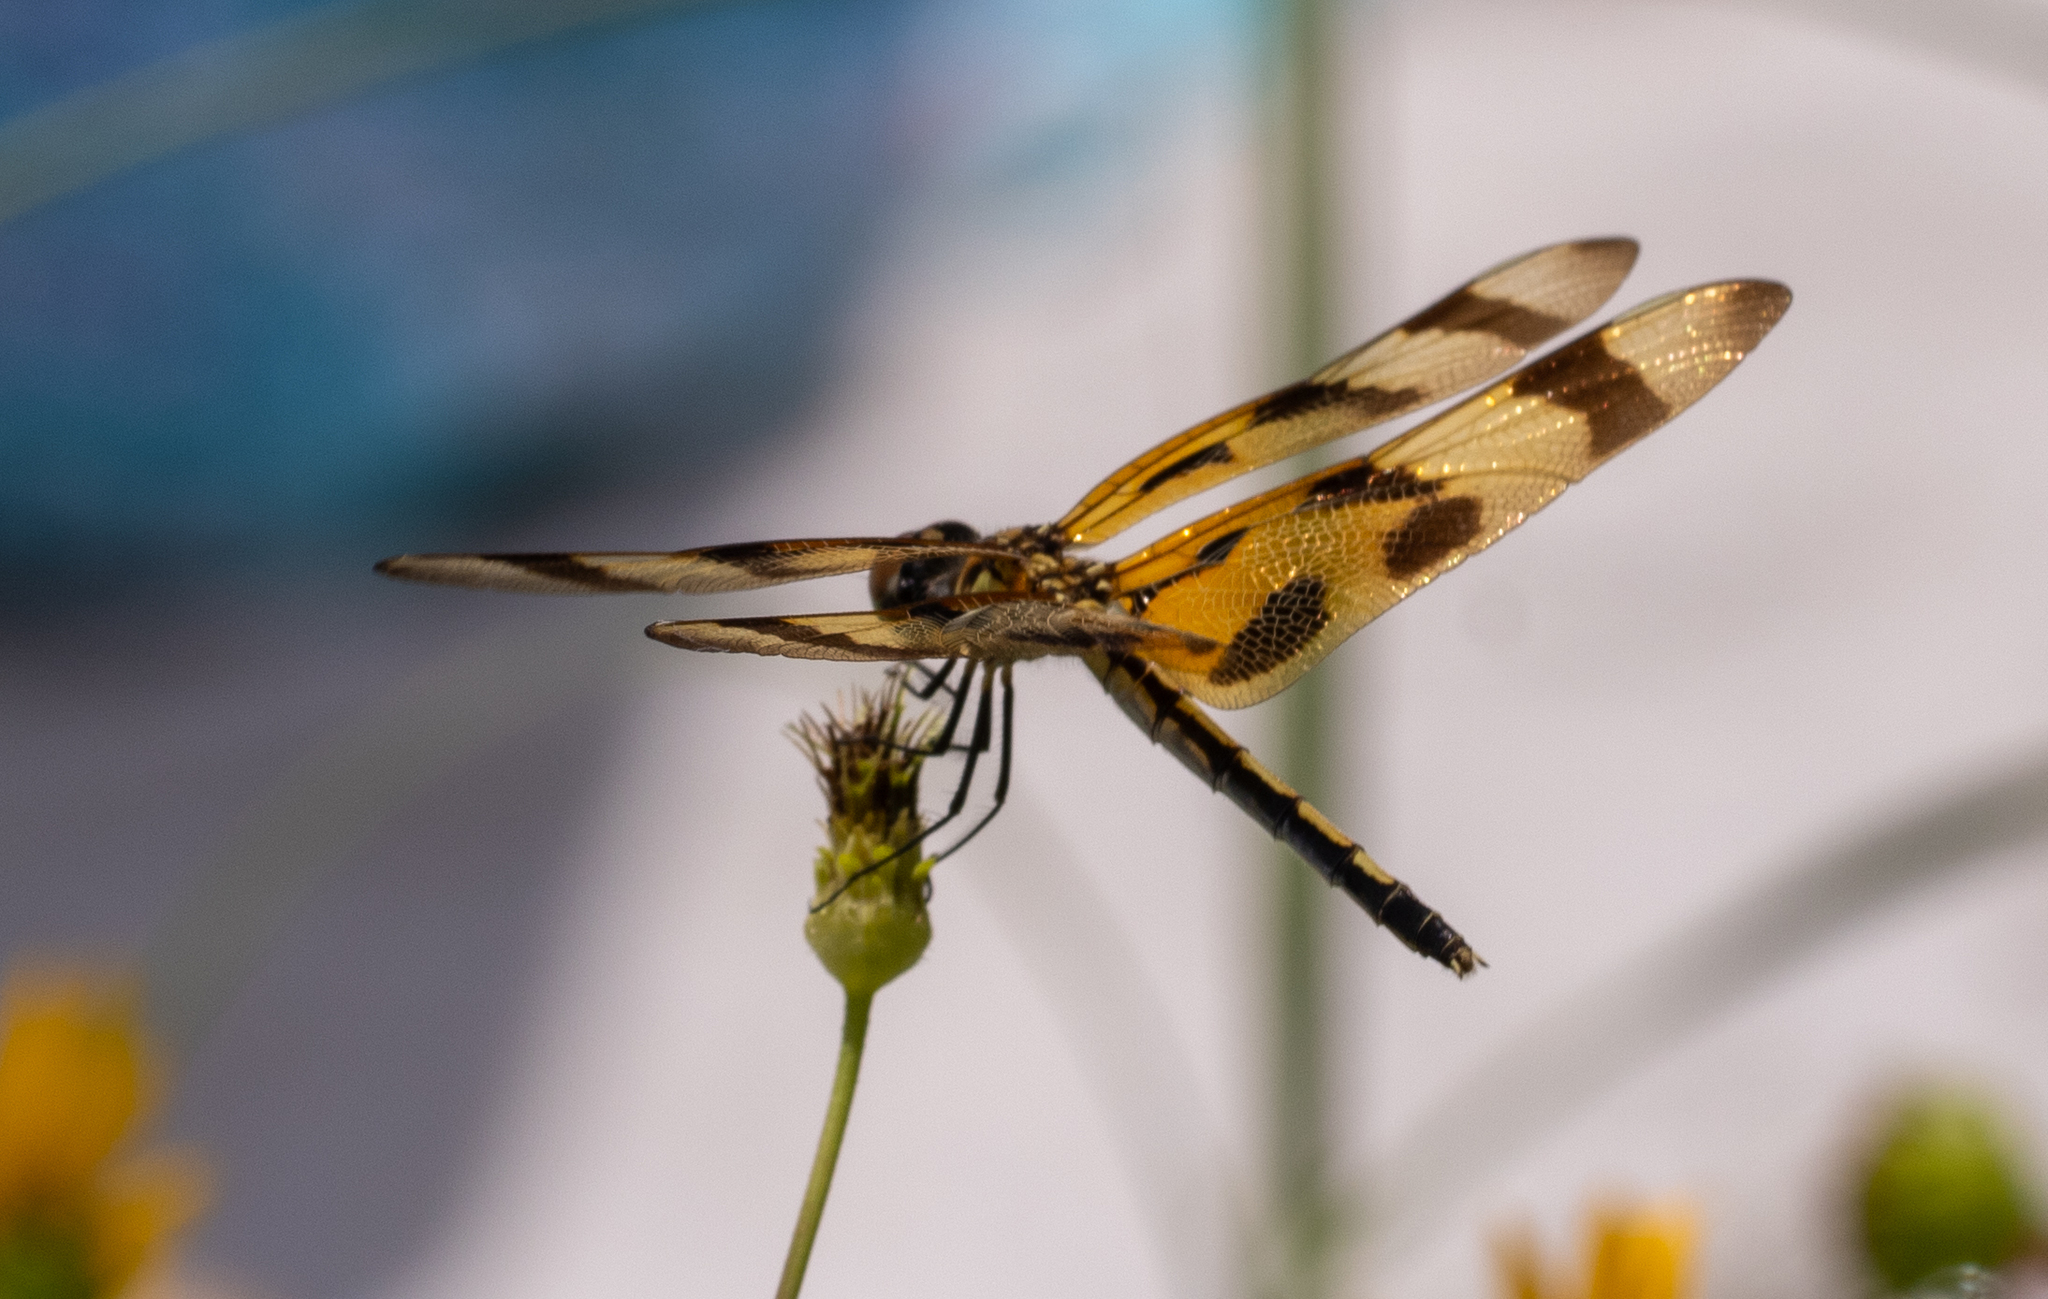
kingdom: Animalia
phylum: Arthropoda
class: Insecta
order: Odonata
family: Libellulidae
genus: Celithemis
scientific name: Celithemis eponina
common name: Halloween pennant
